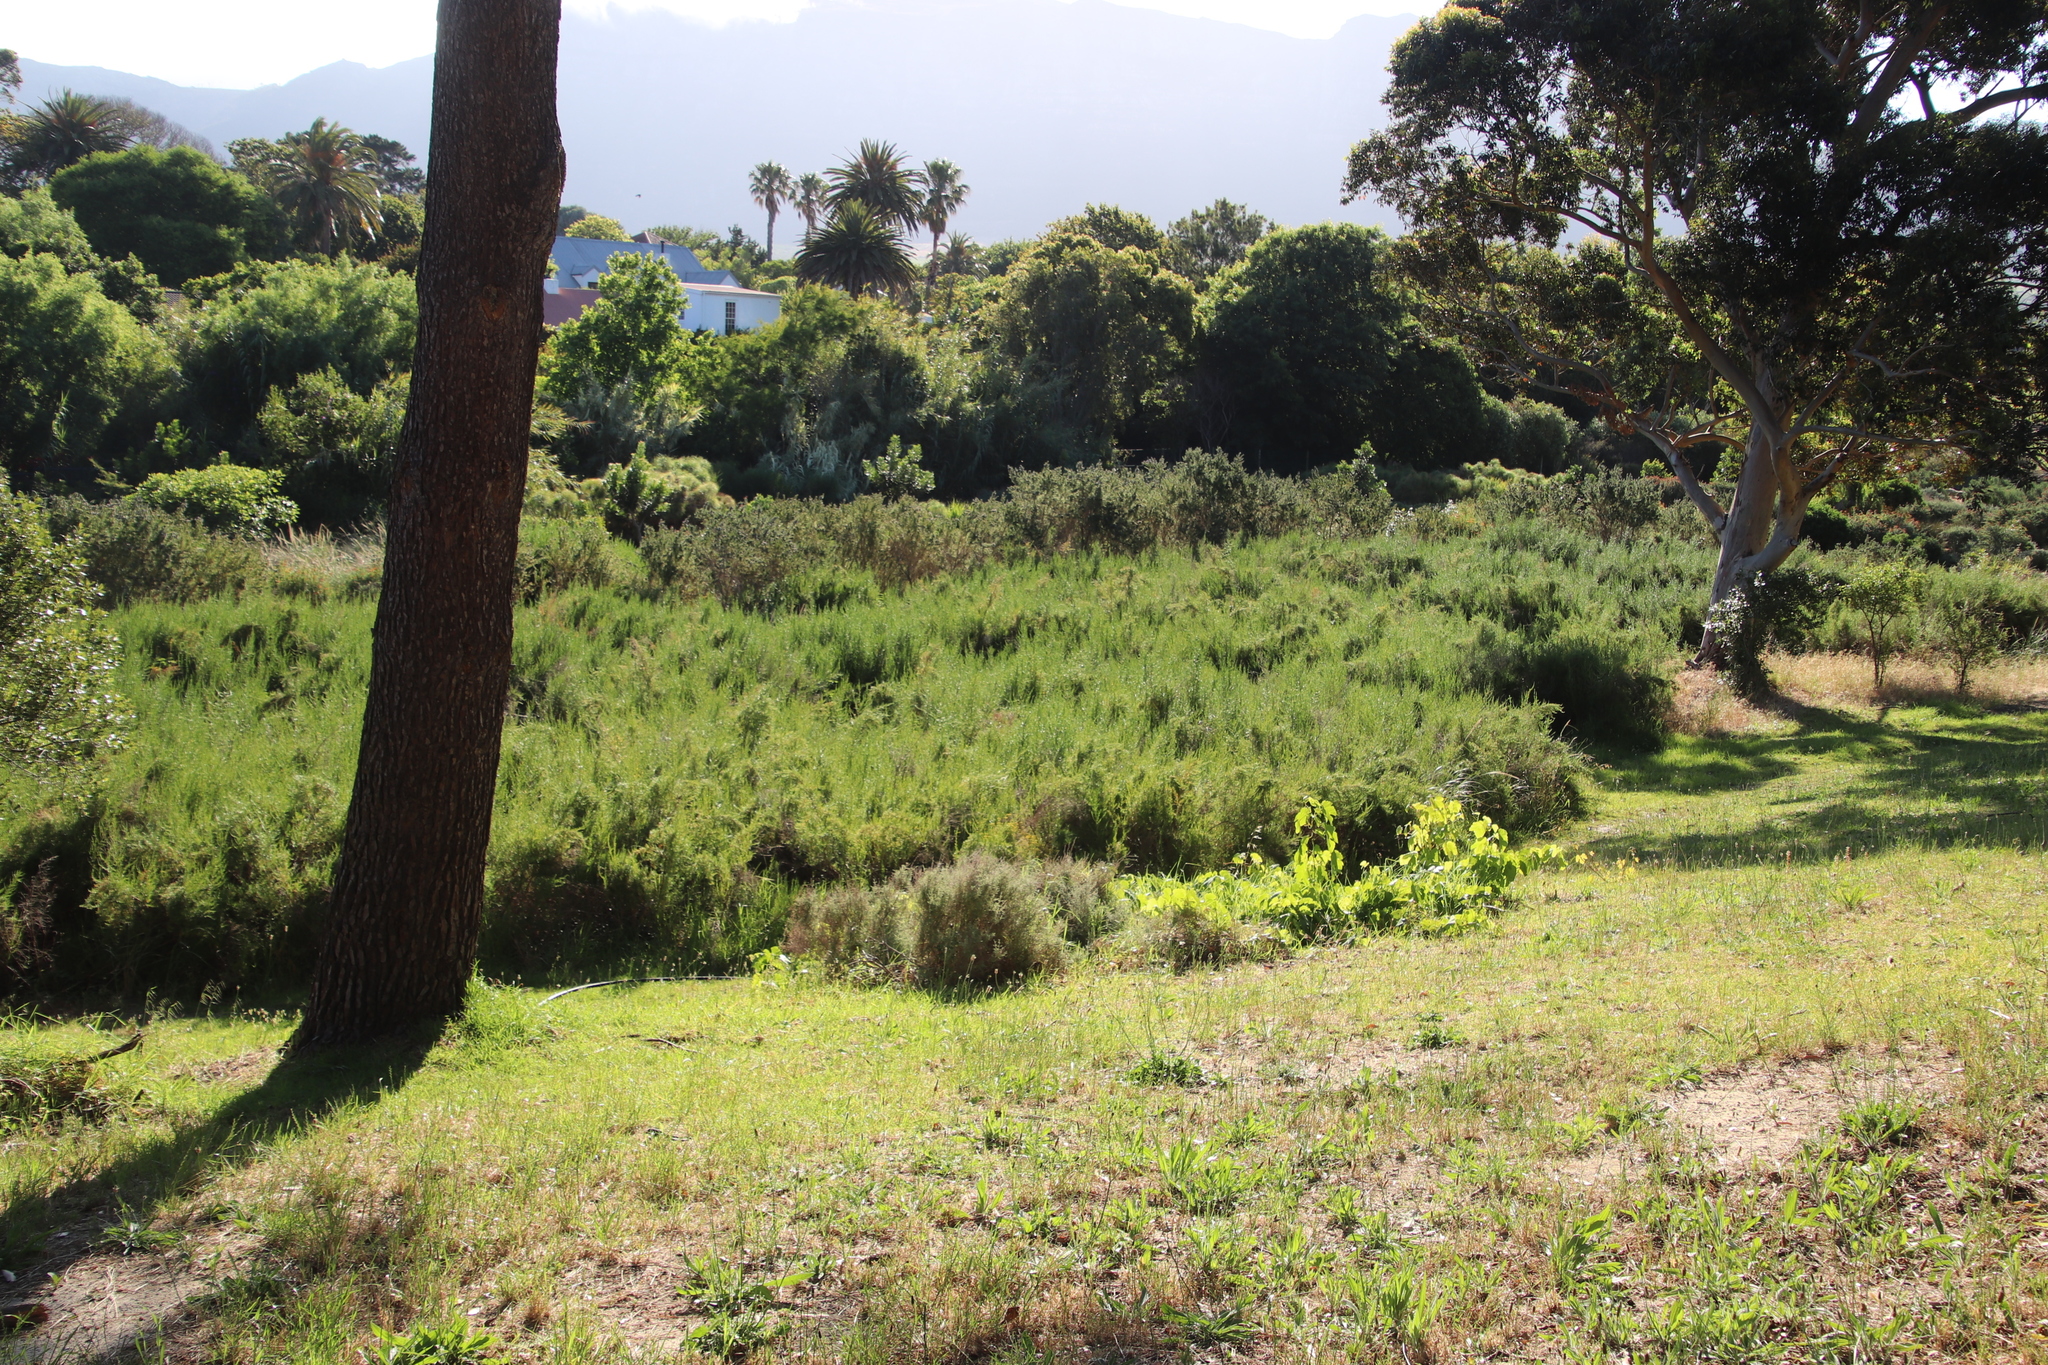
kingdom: Plantae
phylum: Tracheophyta
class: Magnoliopsida
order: Rosales
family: Rosaceae
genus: Cliffortia
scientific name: Cliffortia strobilifera
